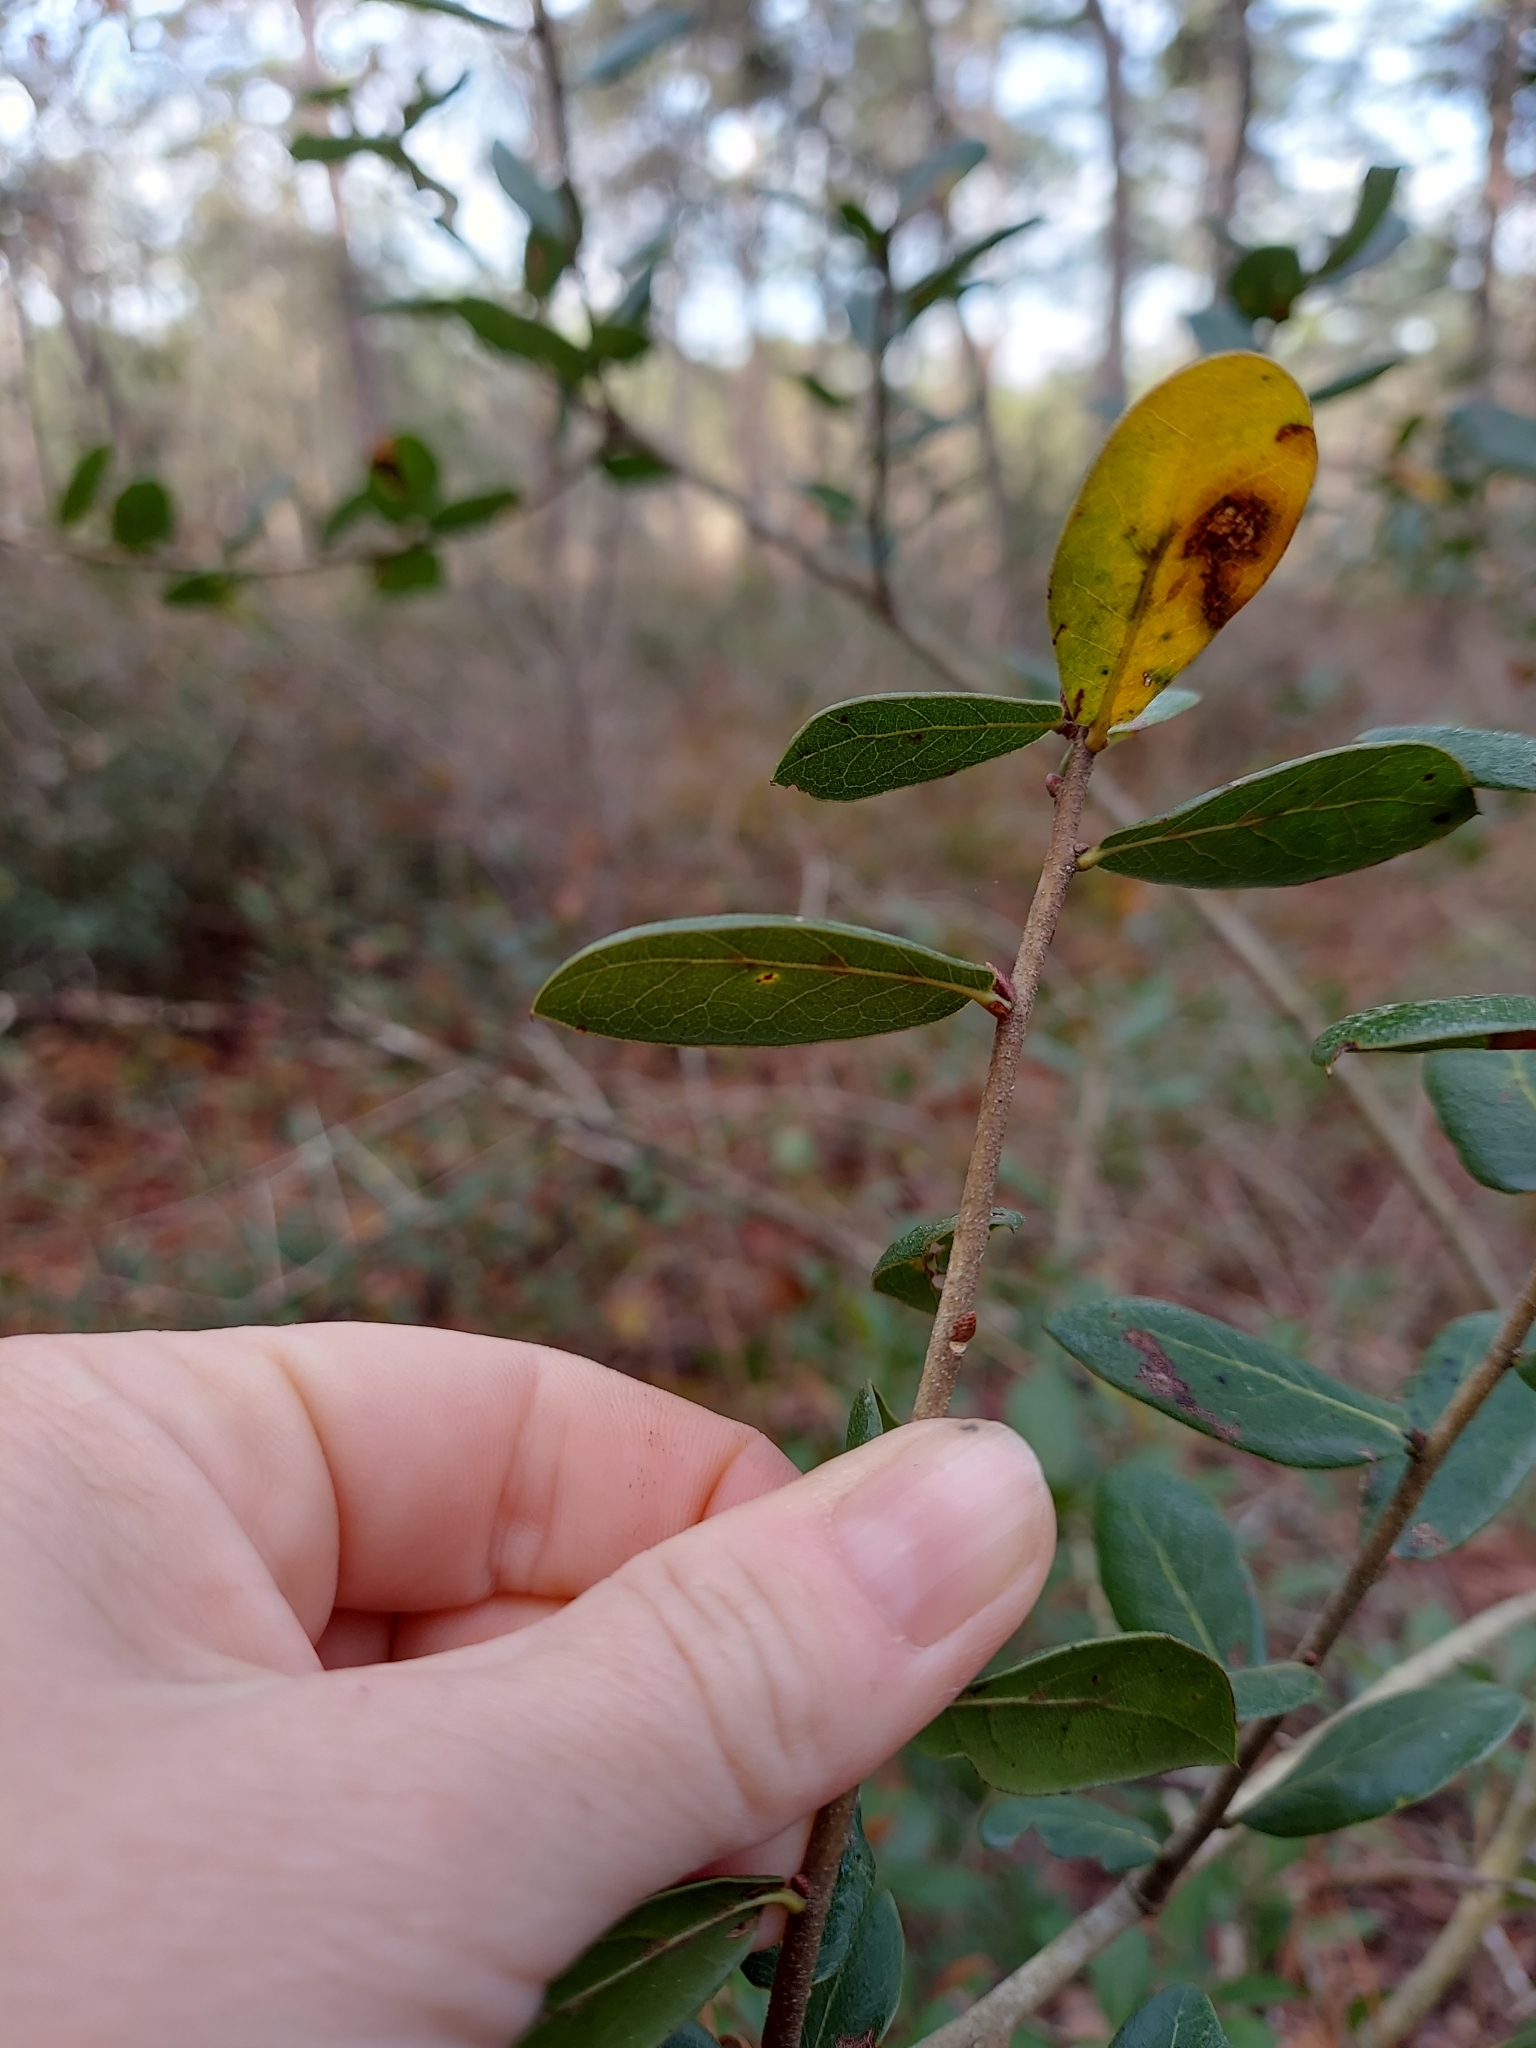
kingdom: Plantae
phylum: Tracheophyta
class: Magnoliopsida
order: Fagales
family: Fagaceae
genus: Quercus
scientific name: Quercus myrtifolia
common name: Myrtle oak
